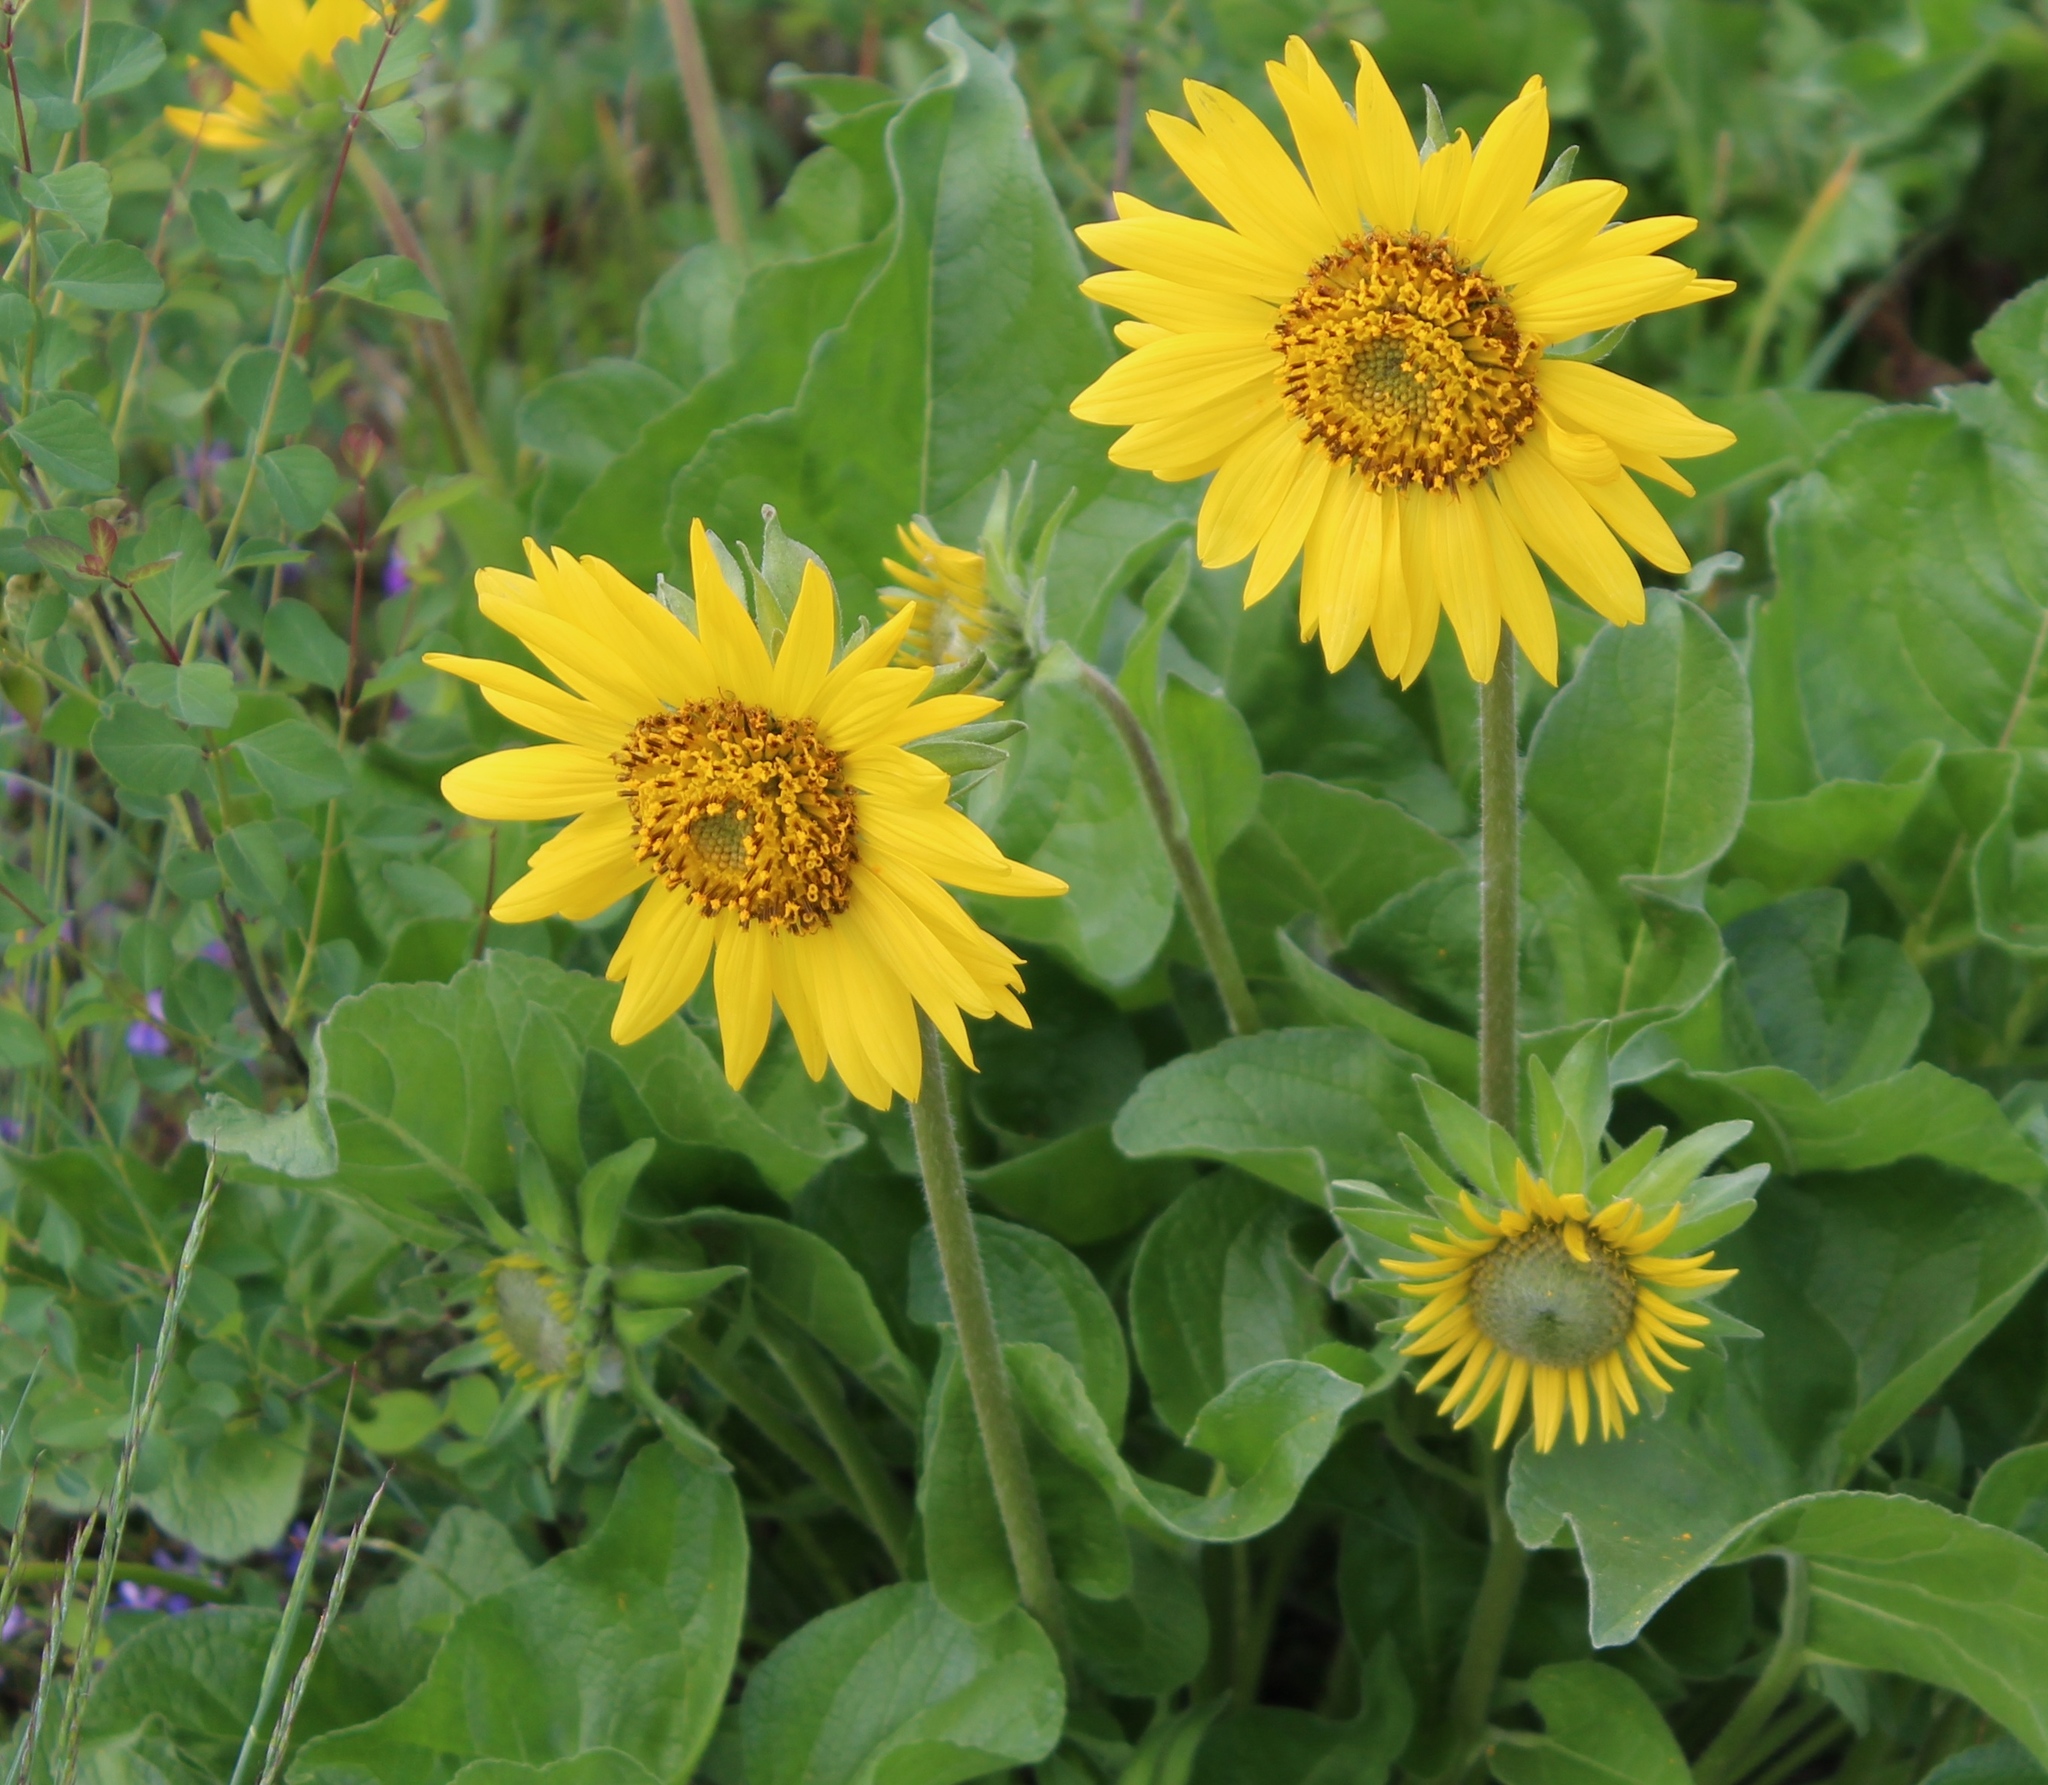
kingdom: Plantae
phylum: Tracheophyta
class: Magnoliopsida
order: Asterales
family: Asteraceae
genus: Balsamorhiza
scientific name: Balsamorhiza deltoidea
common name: Deltoid balsamroot
